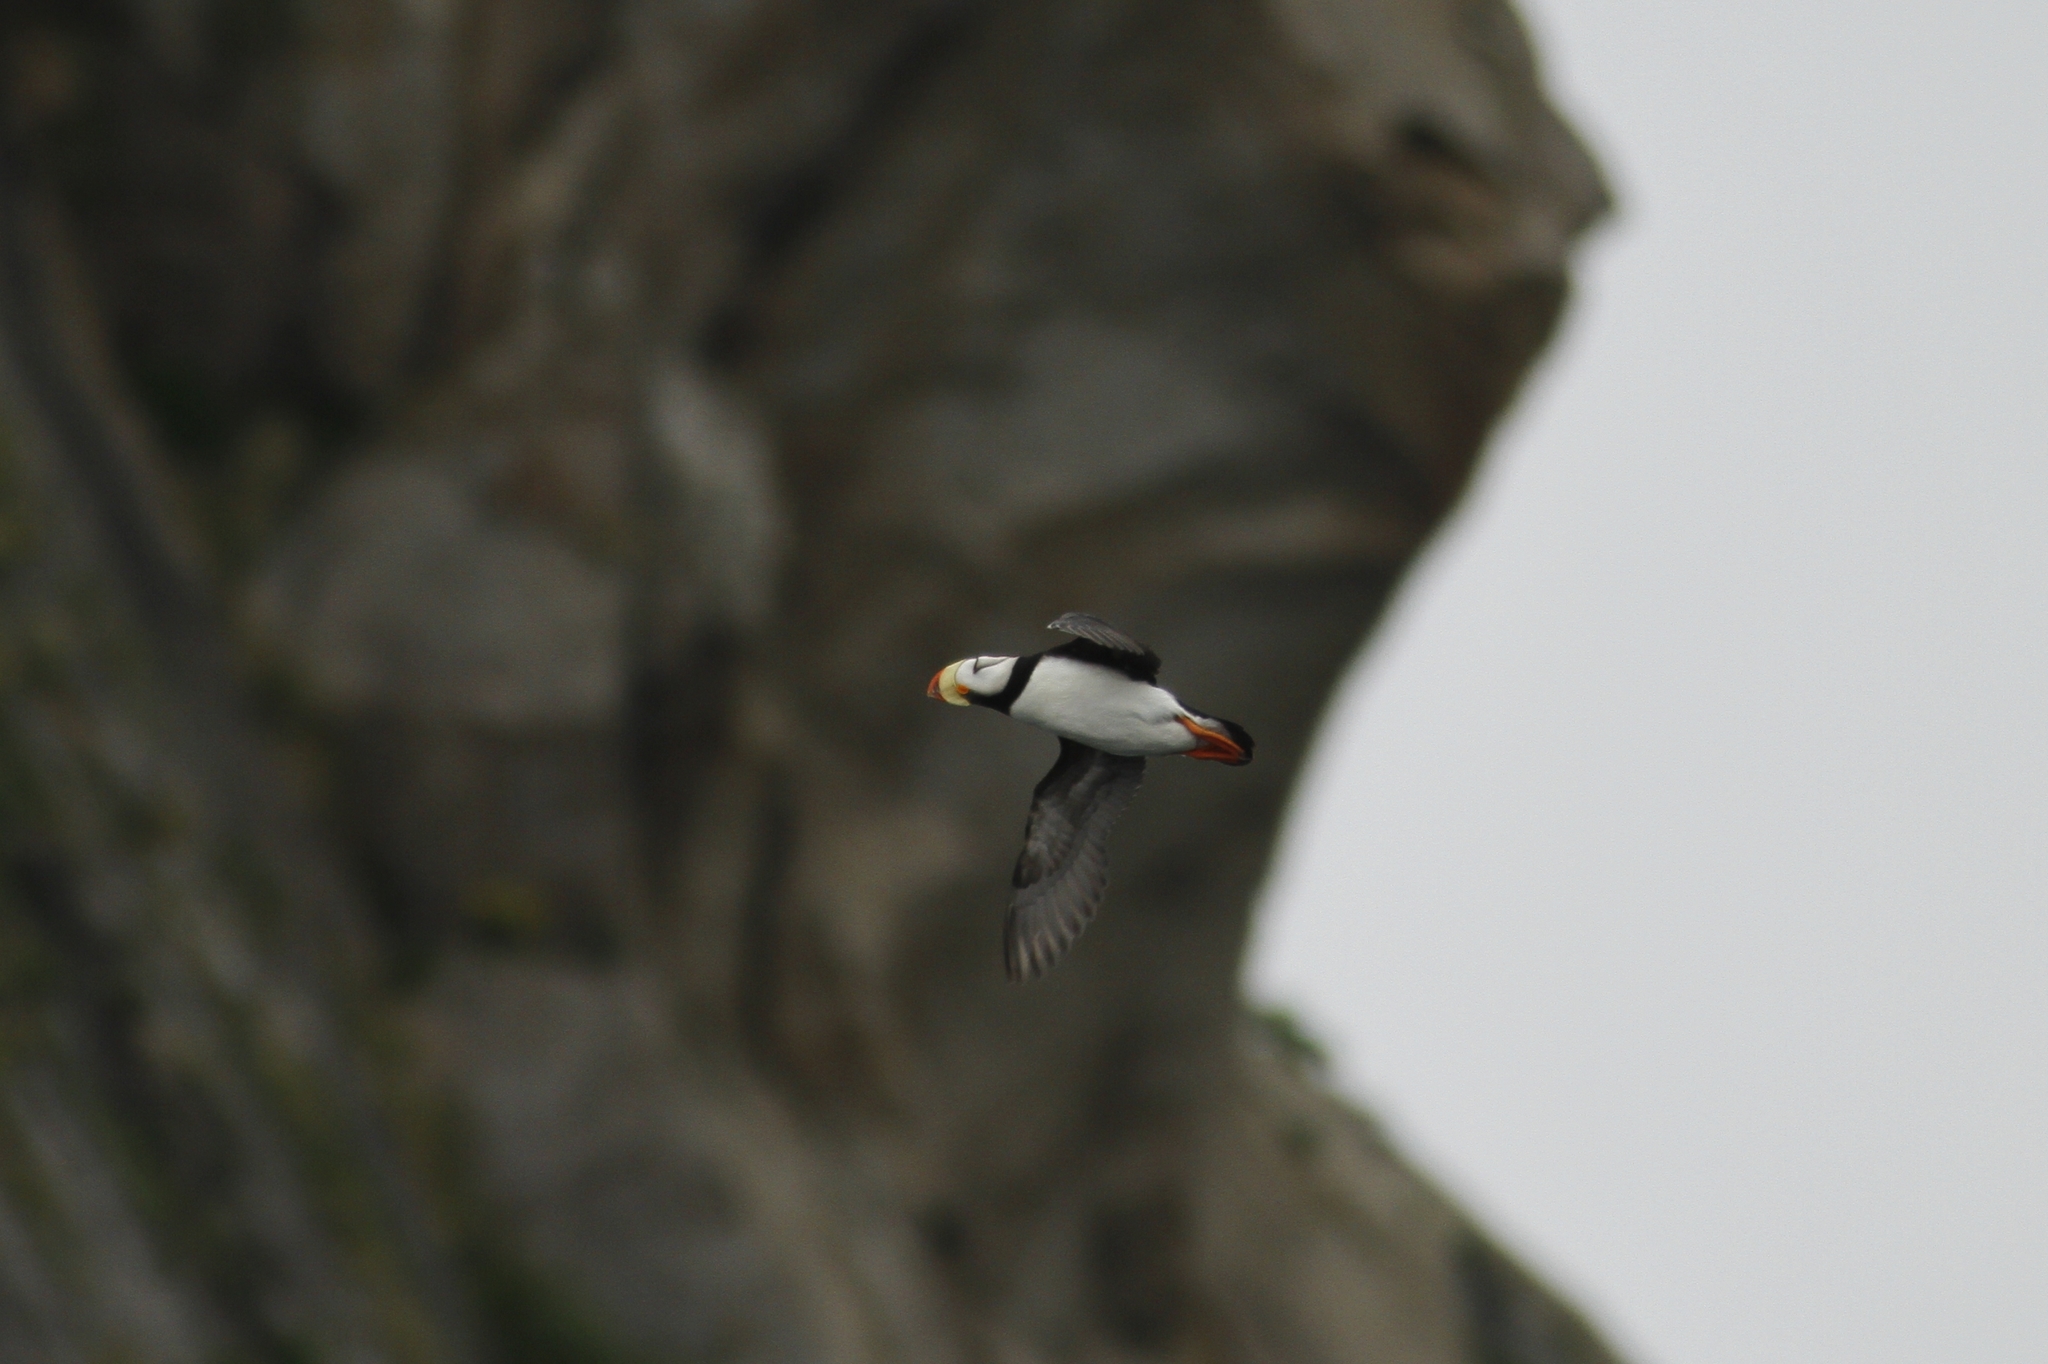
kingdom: Animalia
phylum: Chordata
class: Aves
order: Charadriiformes
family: Alcidae
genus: Fratercula
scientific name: Fratercula corniculata
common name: Horned puffin
